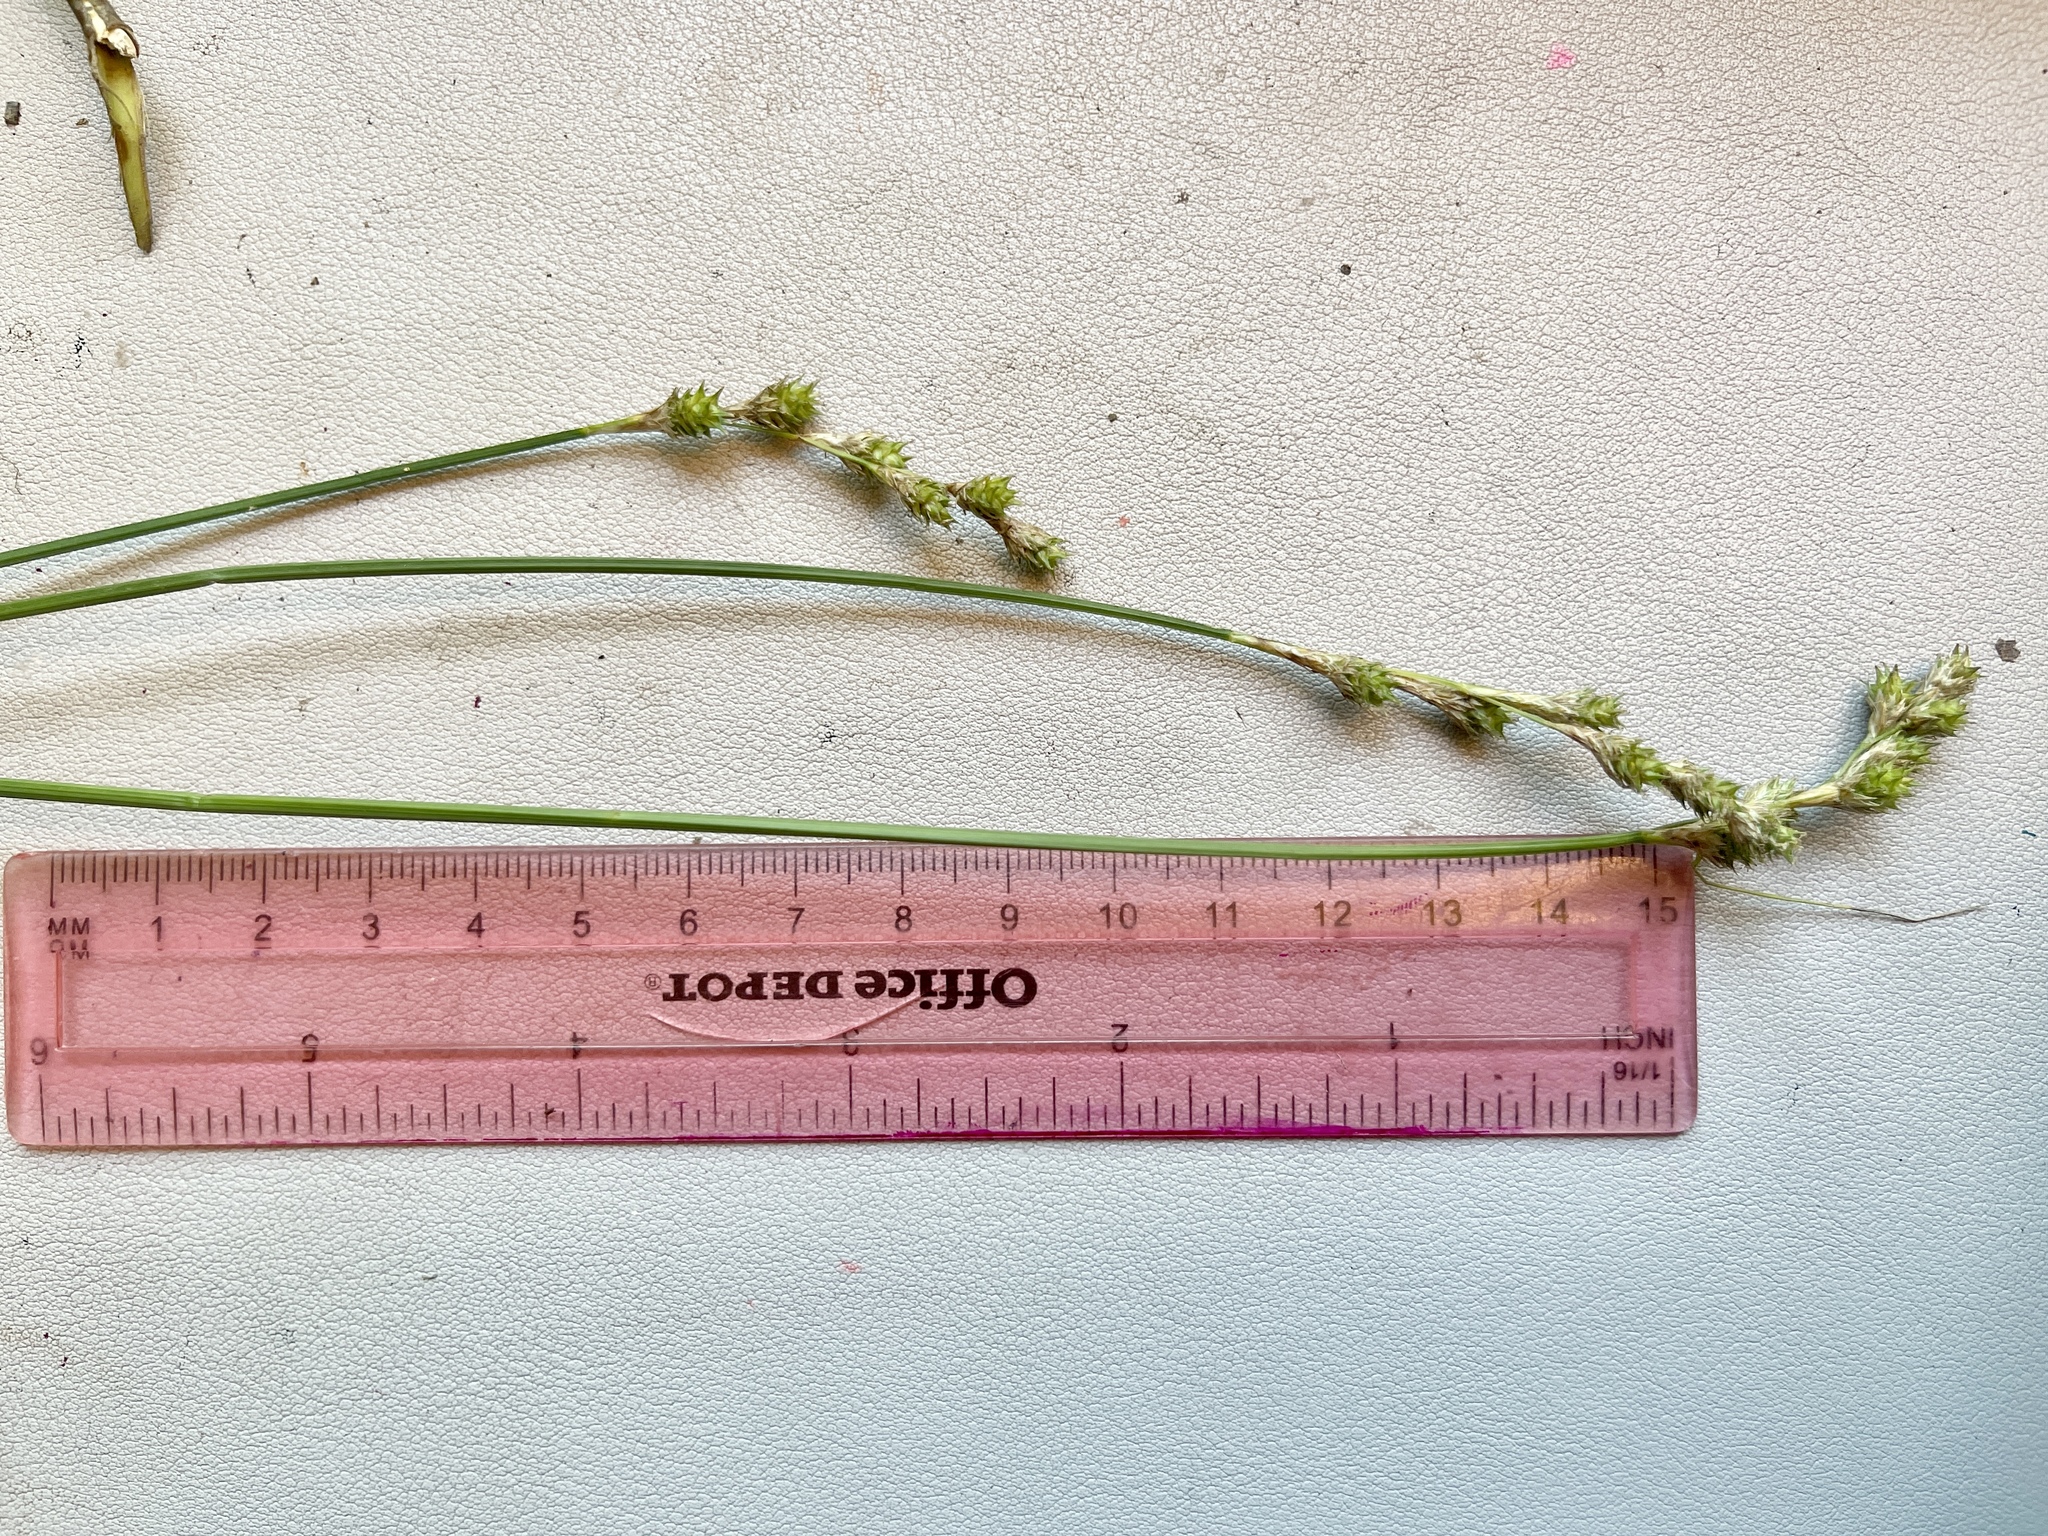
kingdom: Plantae
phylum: Tracheophyta
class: Liliopsida
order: Poales
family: Cyperaceae
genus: Carex
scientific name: Carex festucacea
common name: Fescue oval sedge
